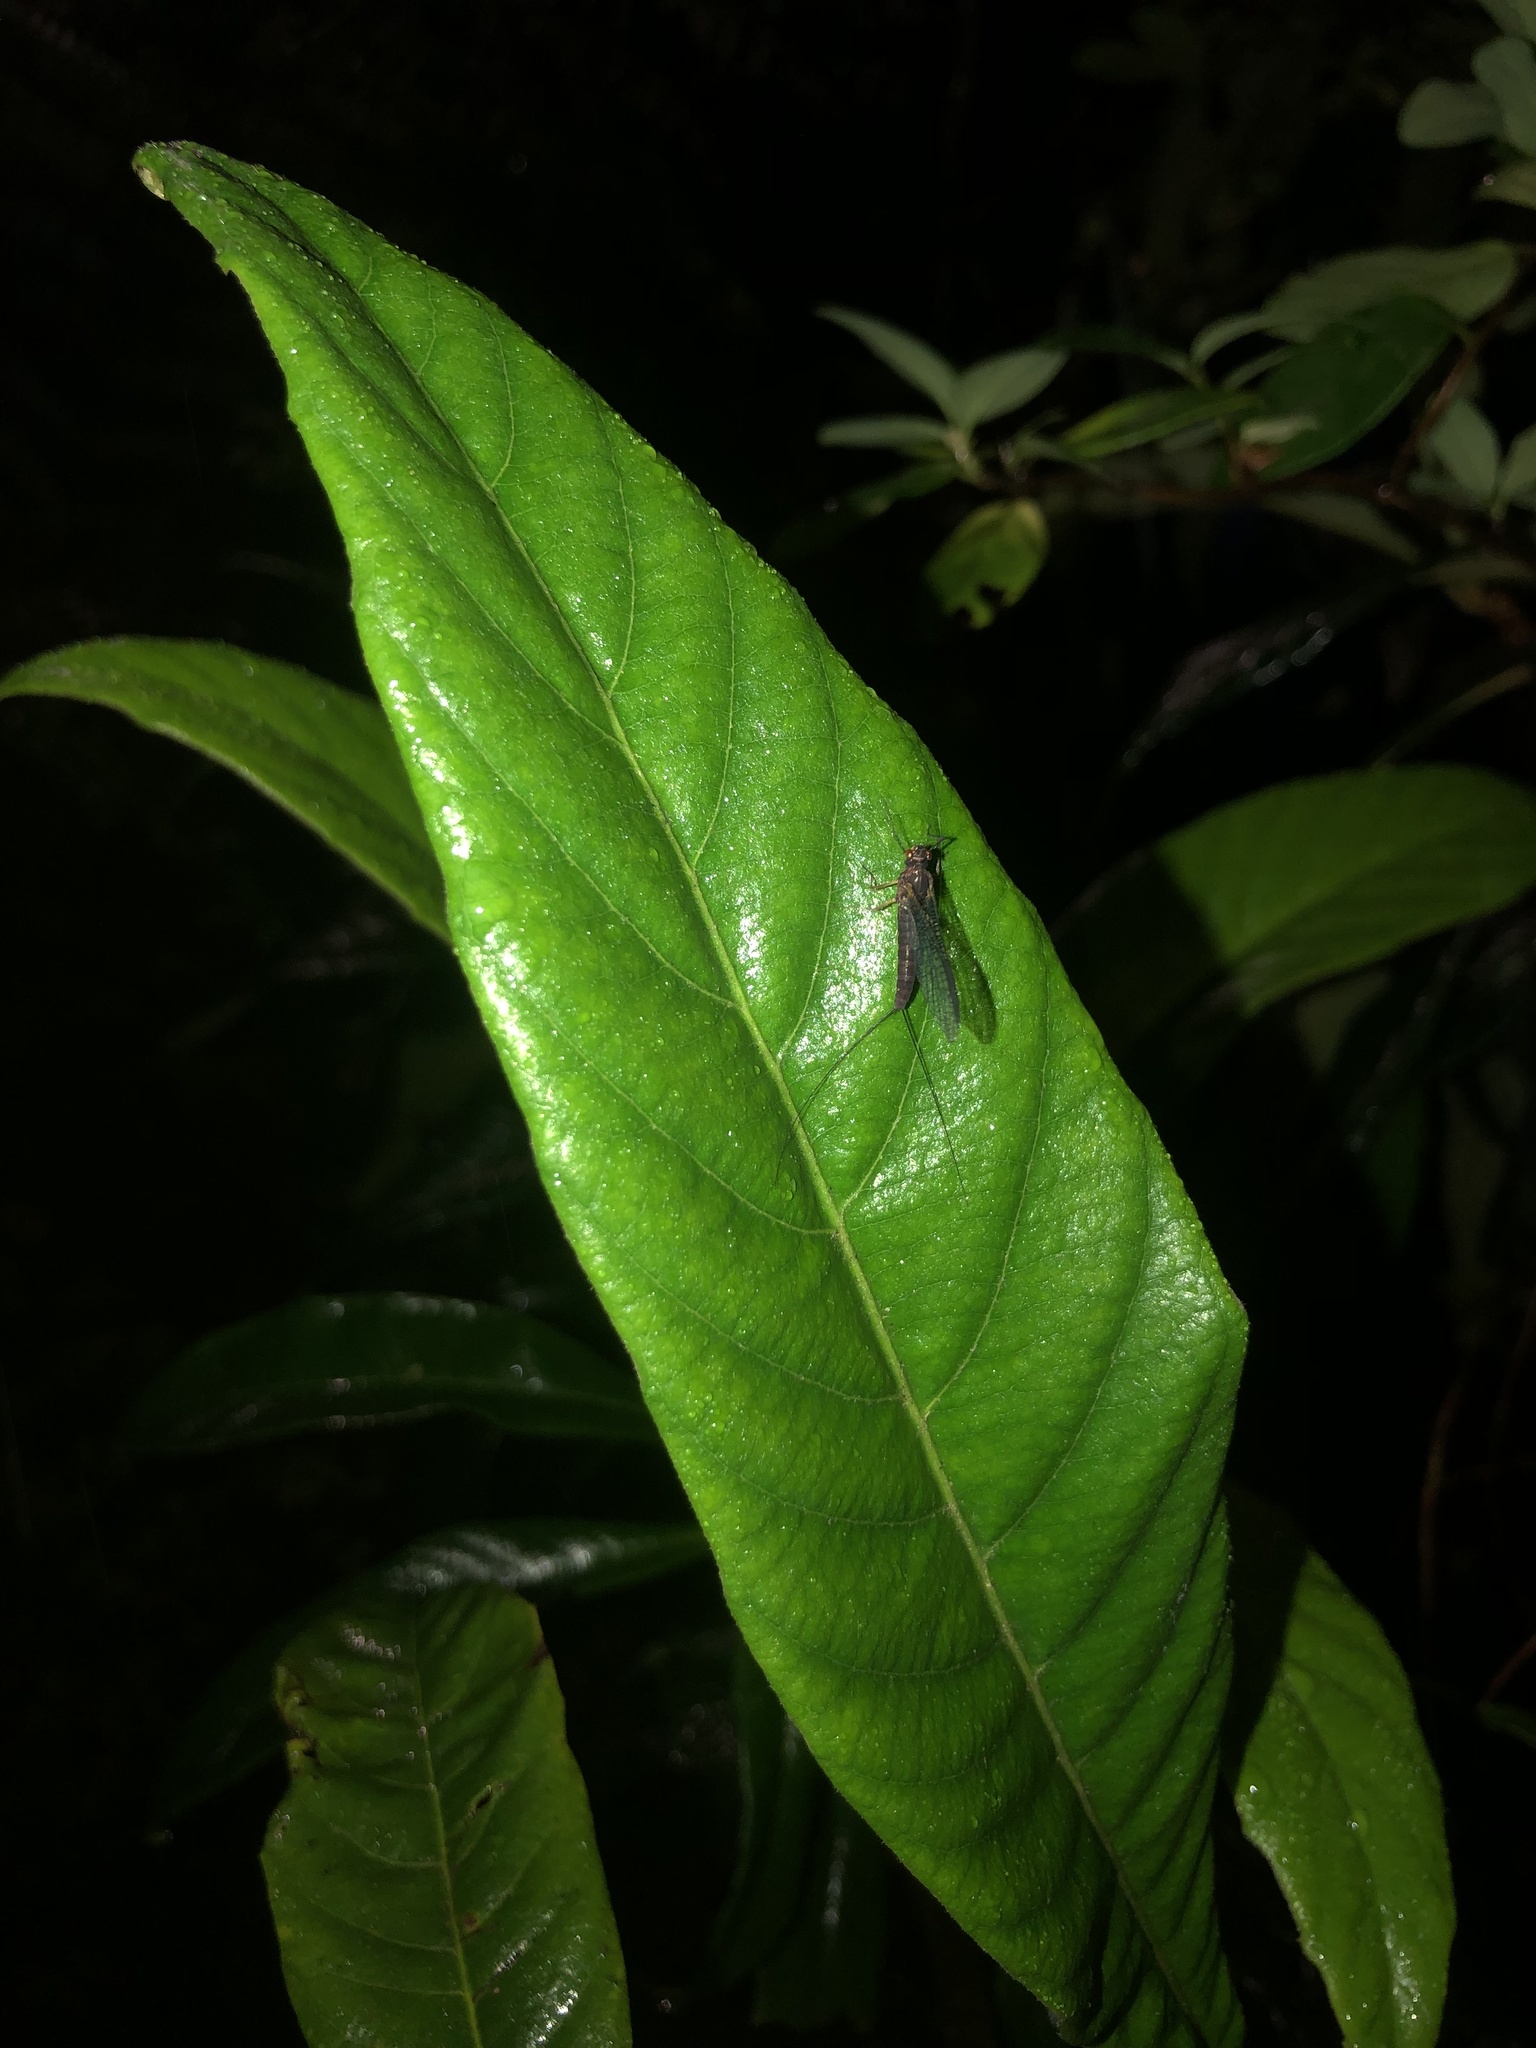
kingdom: Animalia
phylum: Arthropoda
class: Insecta
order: Ephemeroptera
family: Coloburiscidae
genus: Coloburiscus
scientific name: Coloburiscus humeralis
